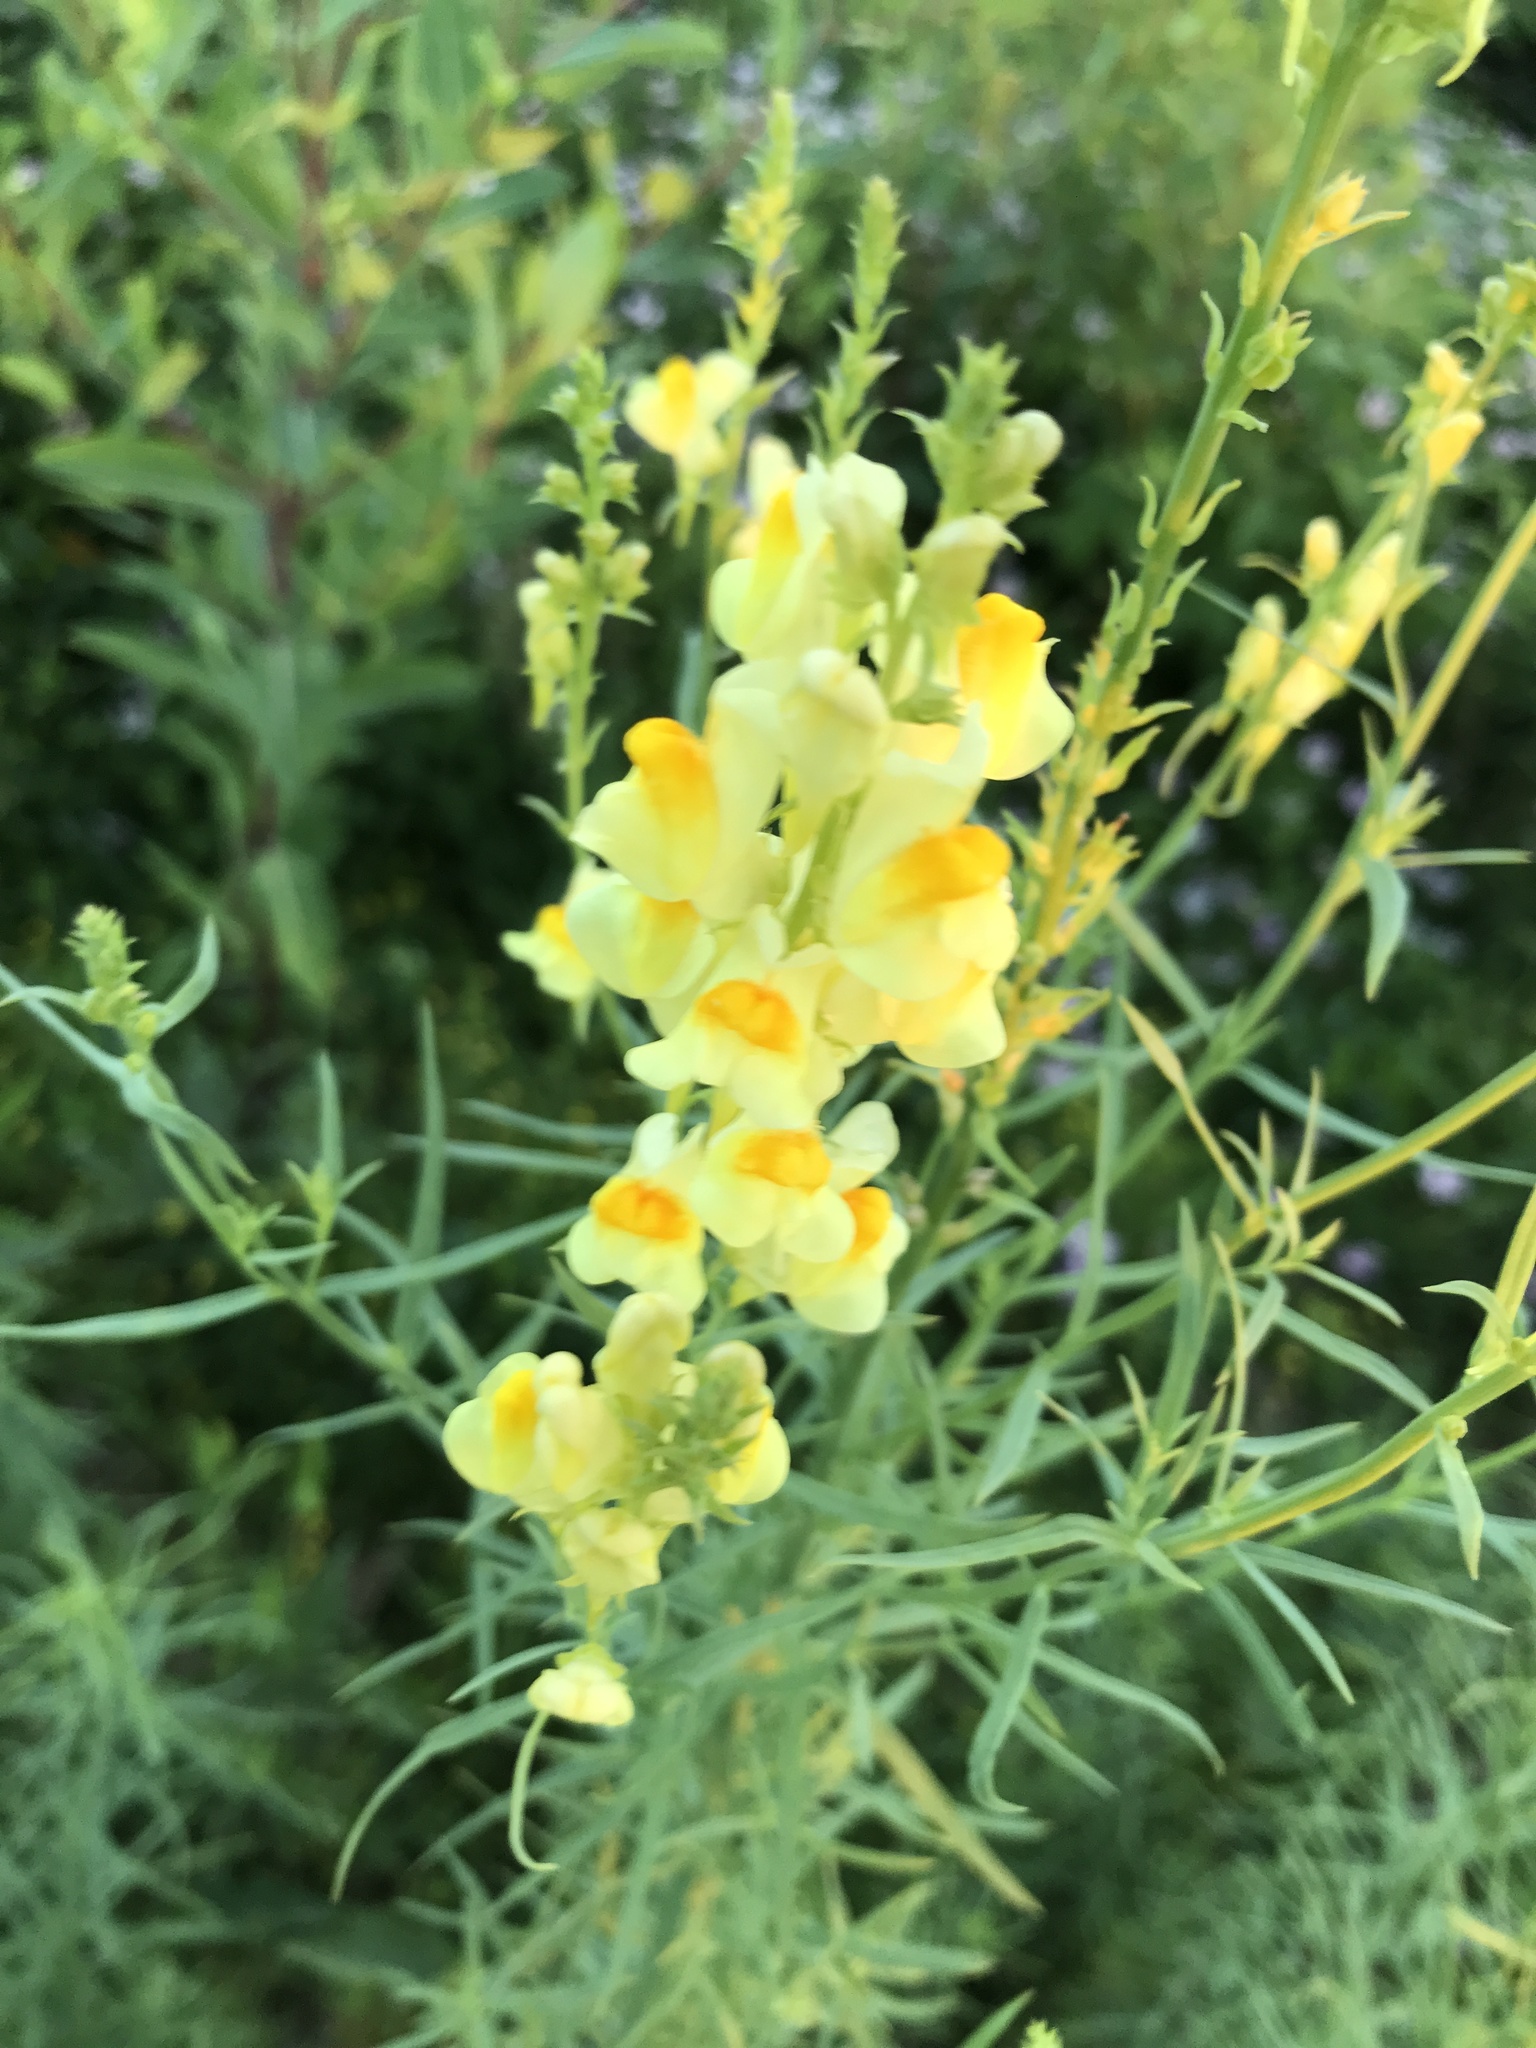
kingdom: Plantae
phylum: Tracheophyta
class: Magnoliopsida
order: Lamiales
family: Plantaginaceae
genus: Linaria
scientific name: Linaria vulgaris
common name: Butter and eggs
